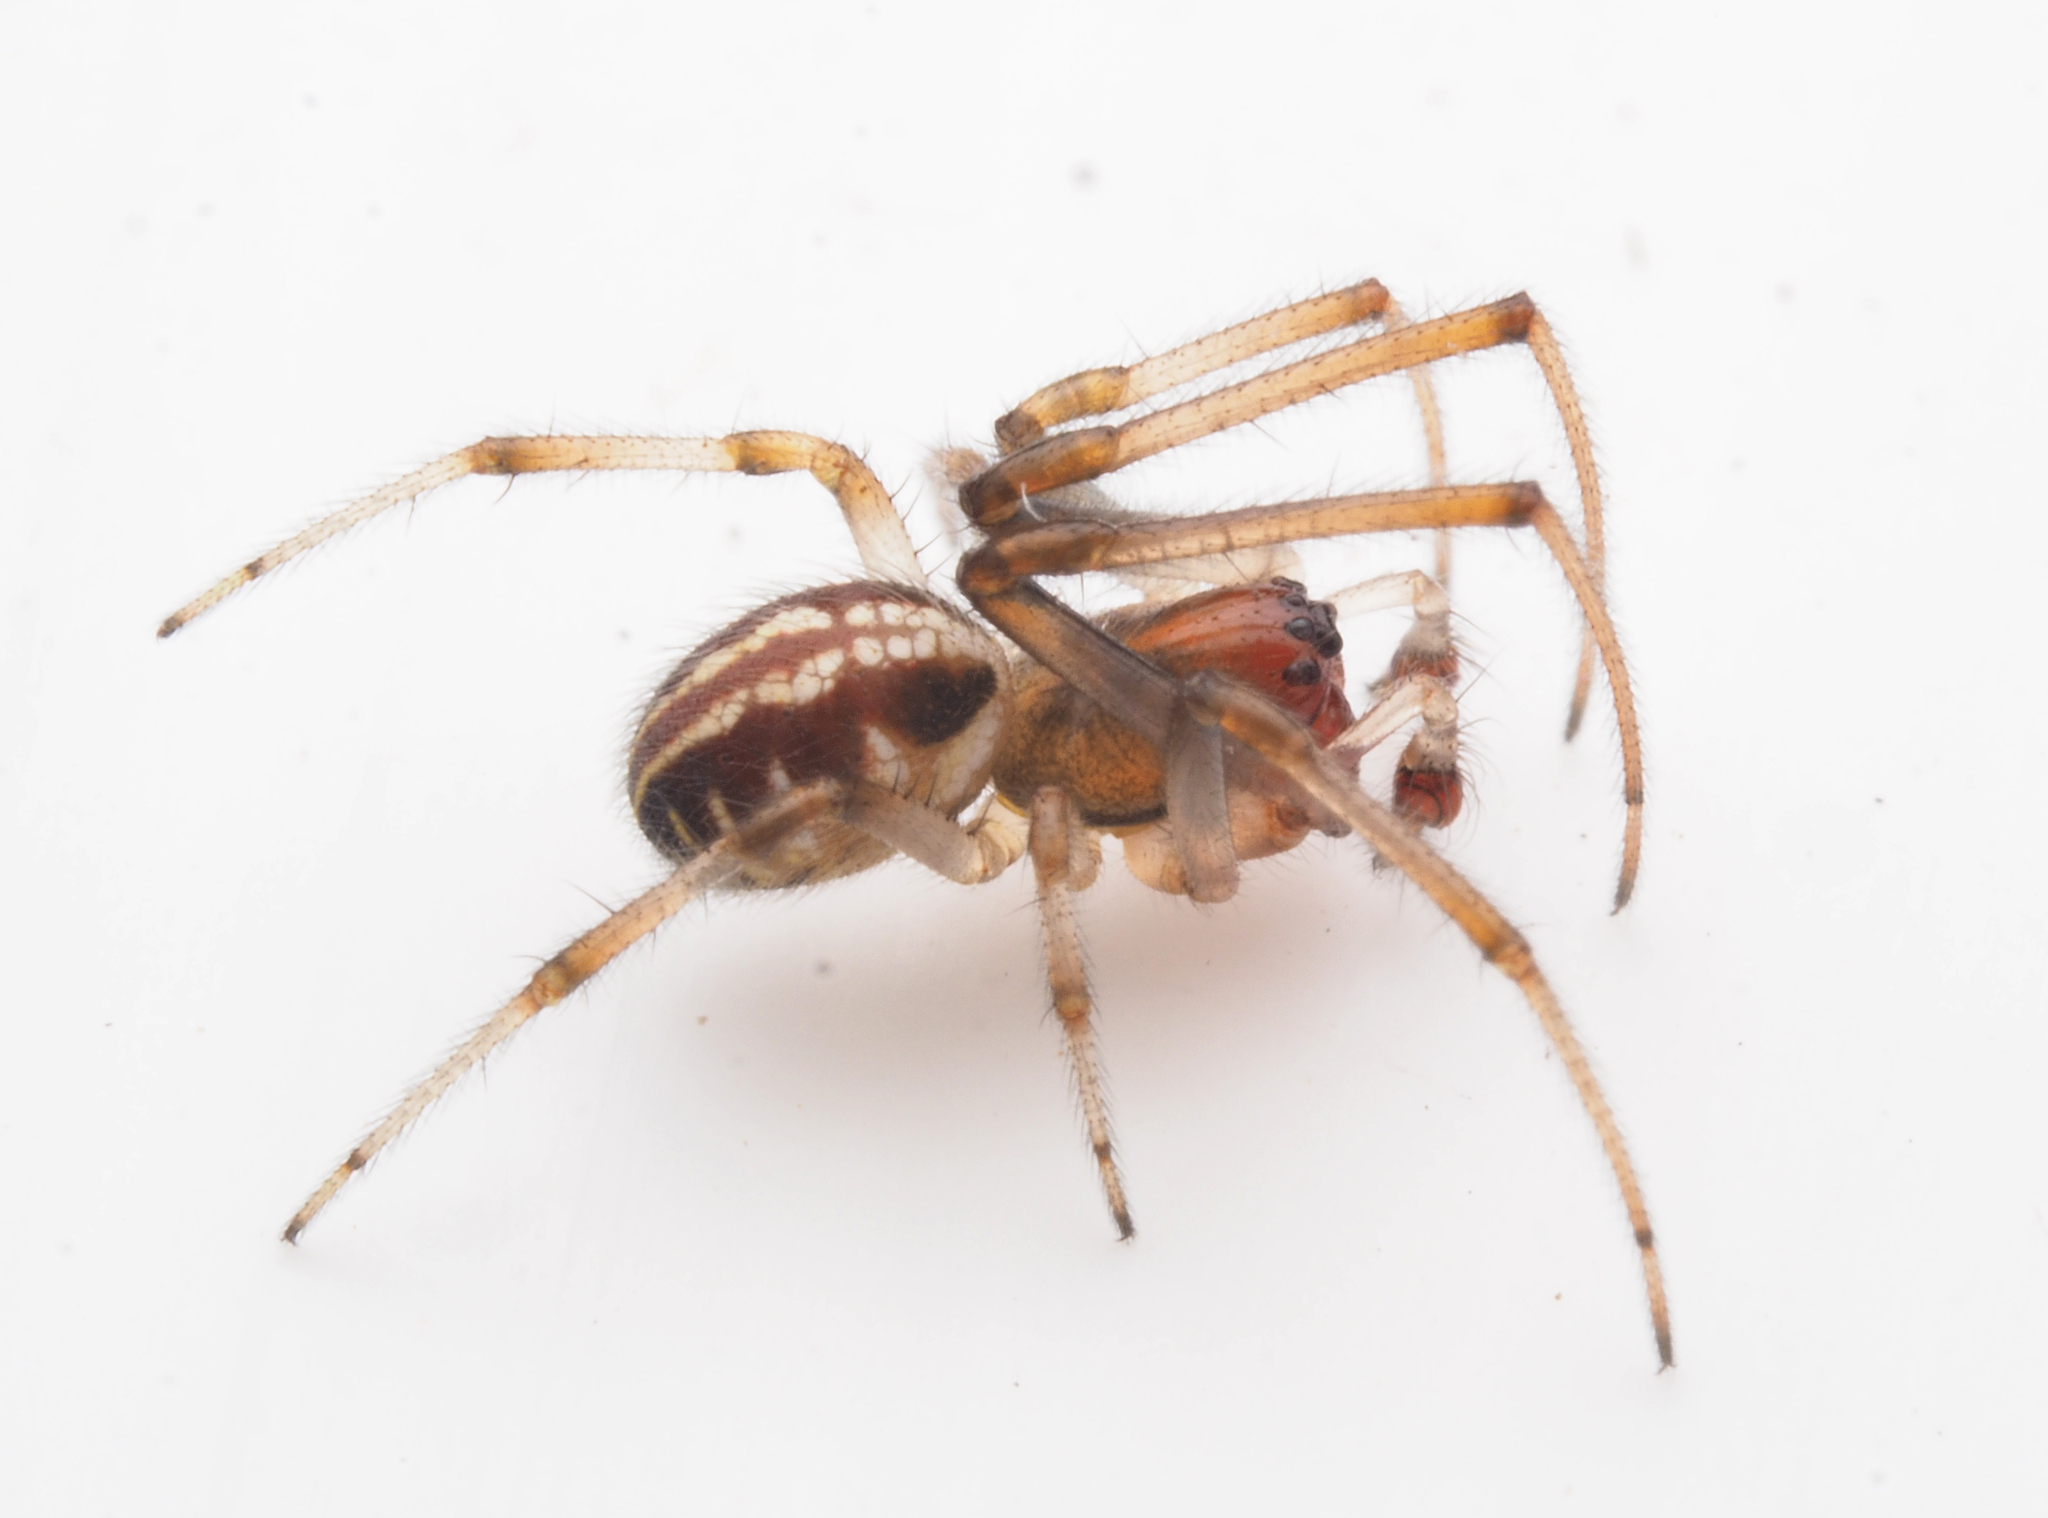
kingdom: Animalia
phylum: Arthropoda
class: Arachnida
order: Araneae
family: Araneidae
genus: Phonognatha
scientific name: Phonognatha graeffei
